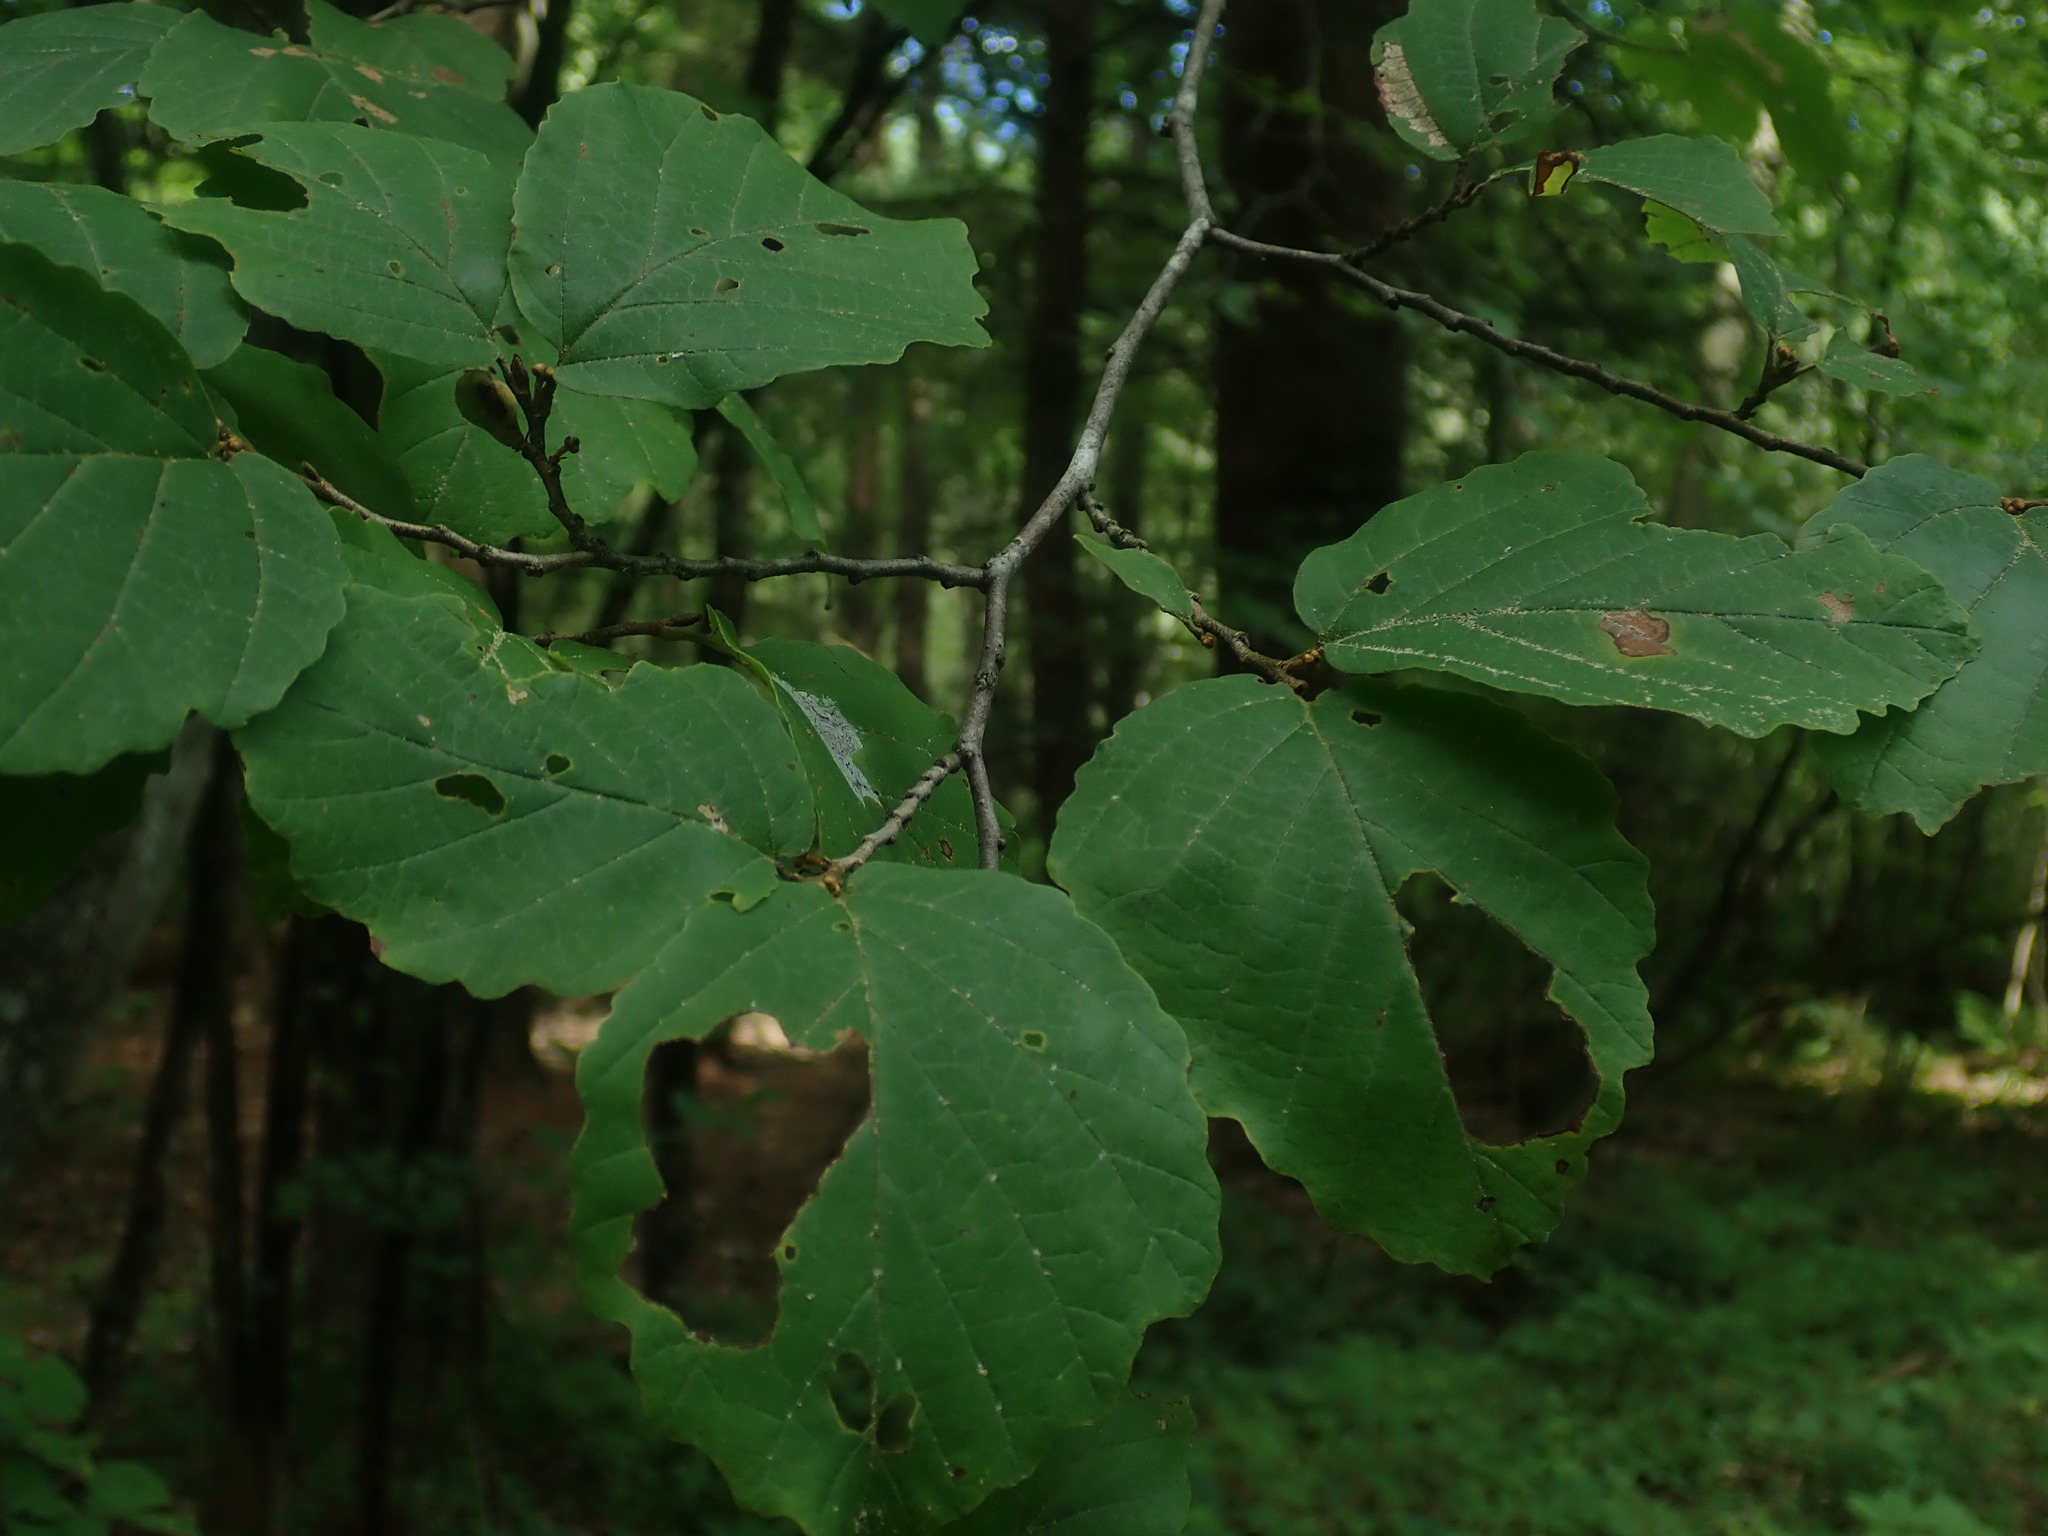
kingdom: Plantae
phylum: Tracheophyta
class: Magnoliopsida
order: Saxifragales
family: Hamamelidaceae
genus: Hamamelis
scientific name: Hamamelis virginiana
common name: Witch-hazel
